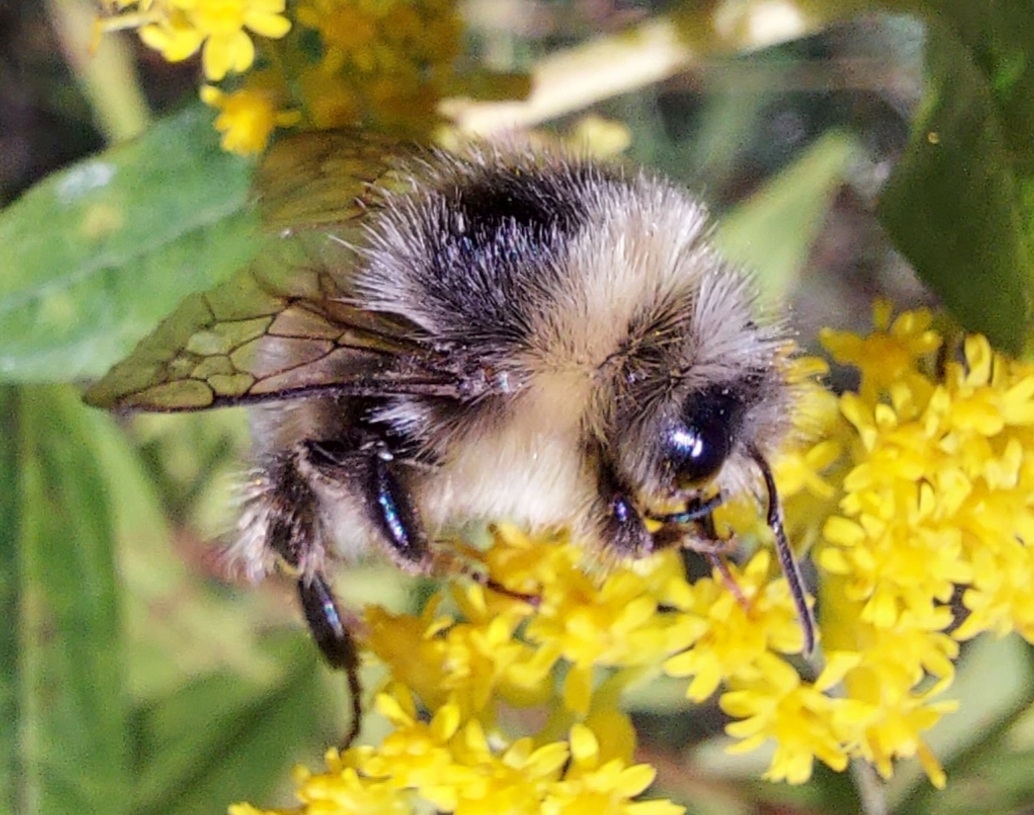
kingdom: Animalia
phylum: Arthropoda
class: Insecta
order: Hymenoptera
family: Apidae
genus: Bombus
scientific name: Bombus lucorum
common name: White-tailed bumblebee
